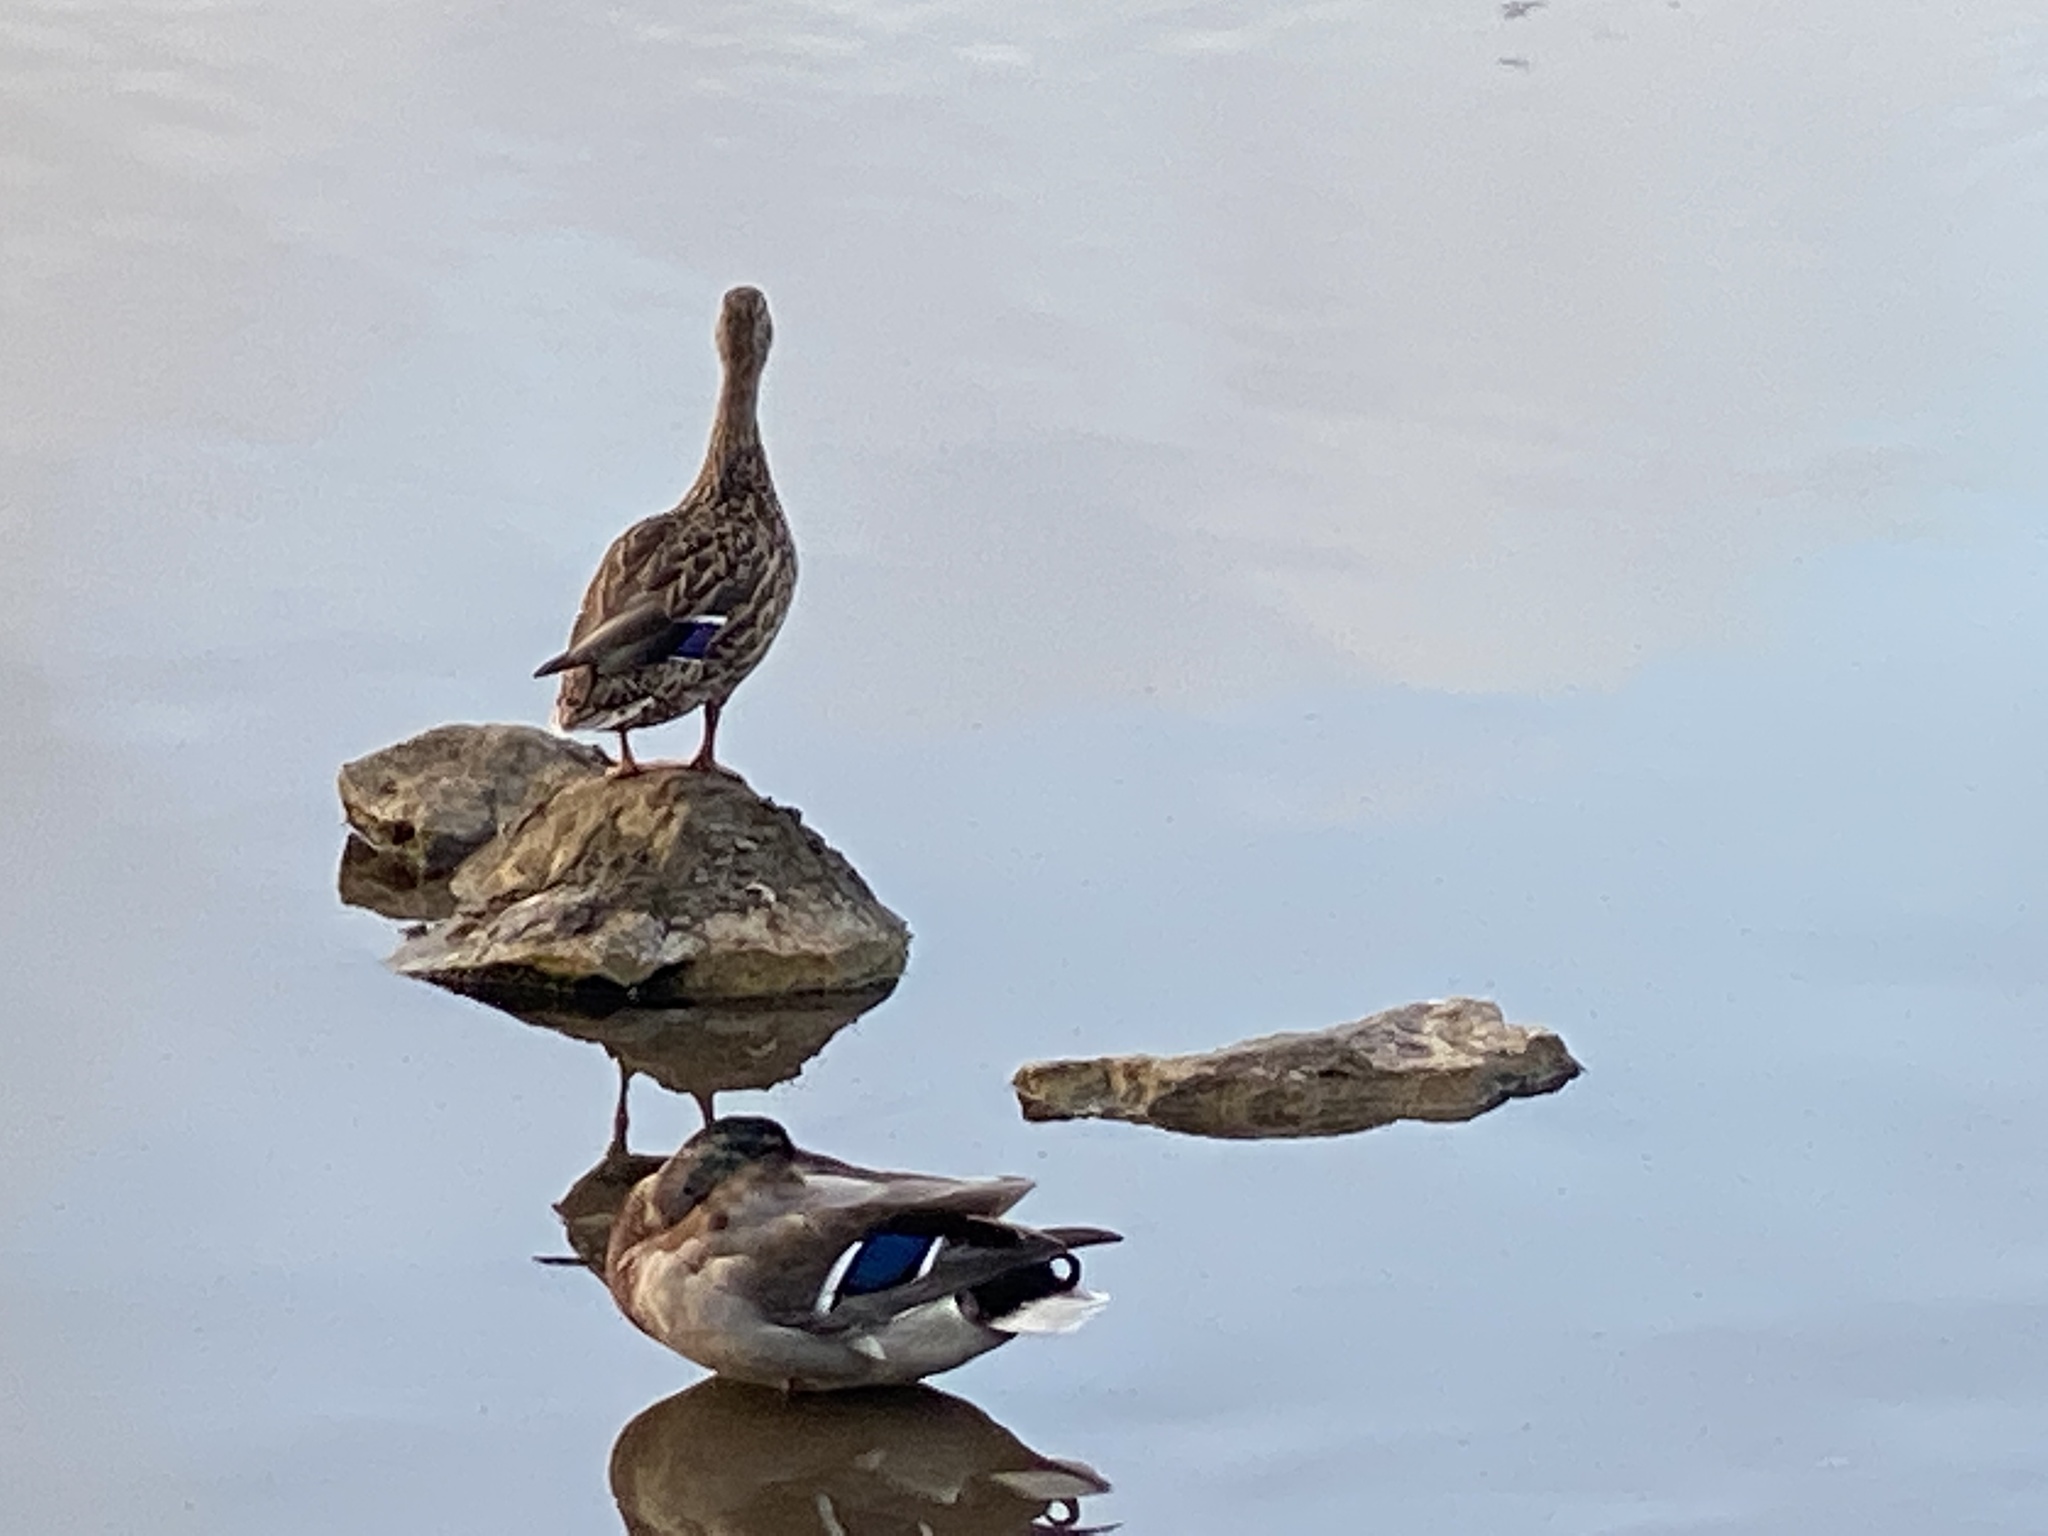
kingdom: Animalia
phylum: Chordata
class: Aves
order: Anseriformes
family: Anatidae
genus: Anas
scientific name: Anas platyrhynchos
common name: Mallard
